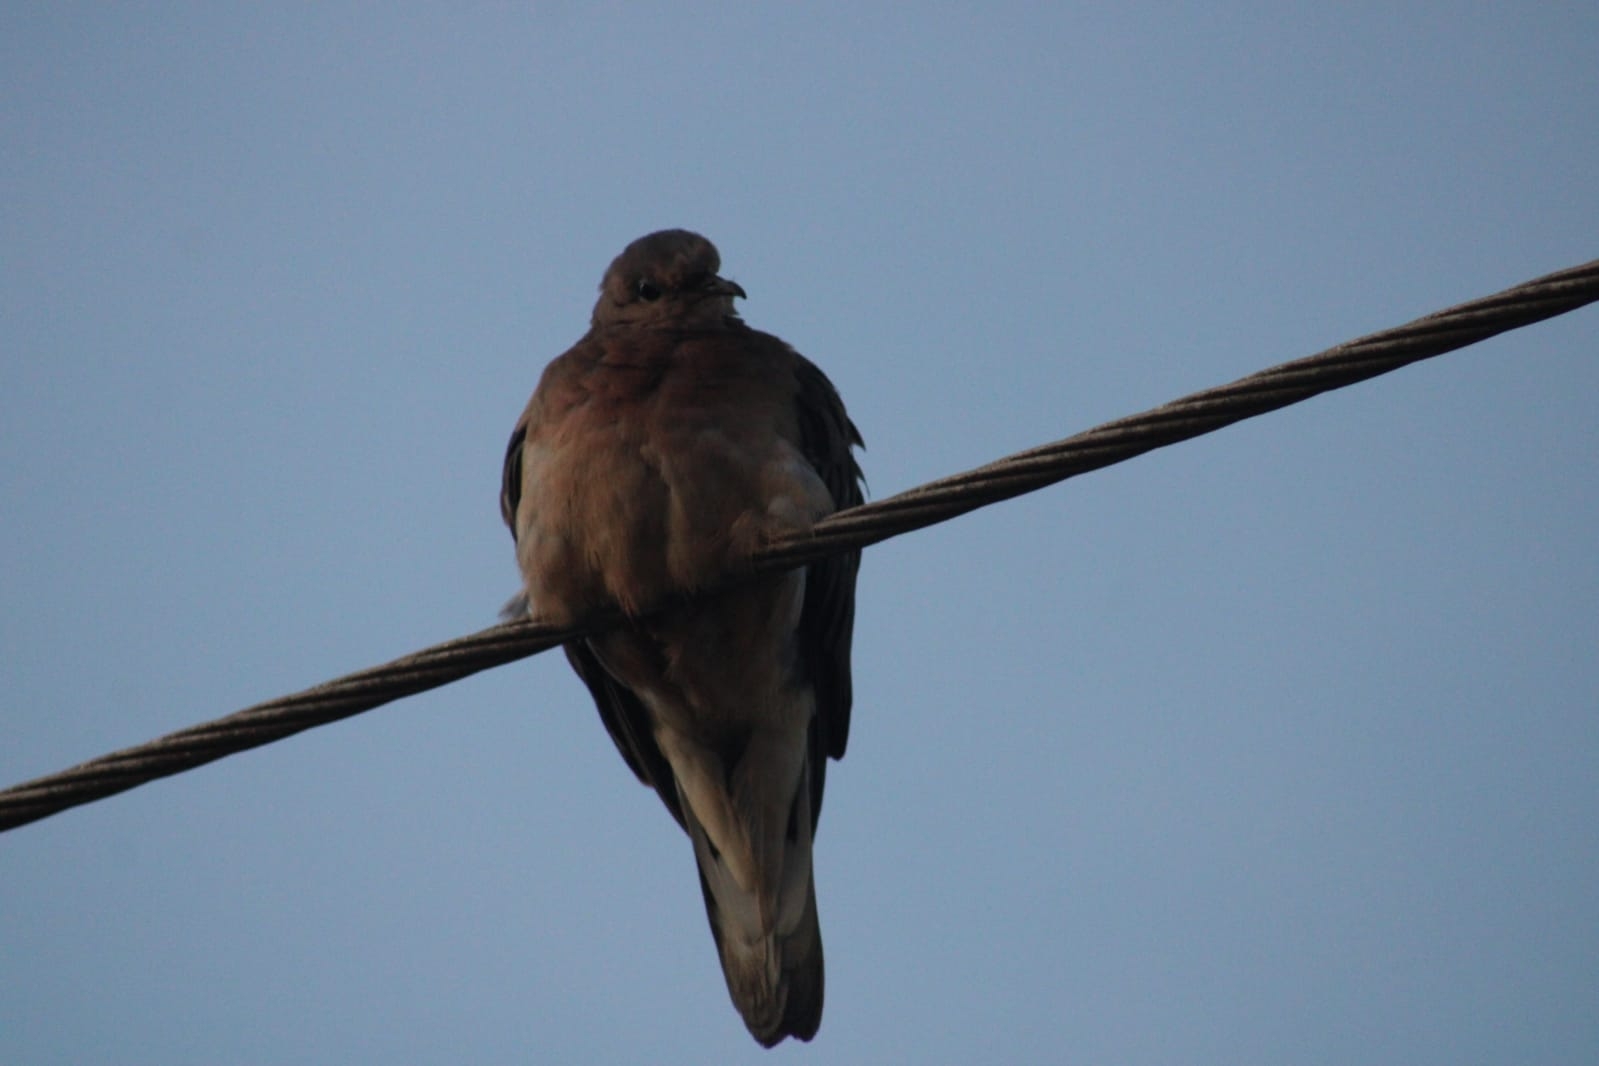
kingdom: Animalia
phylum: Chordata
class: Aves
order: Columbiformes
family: Columbidae
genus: Zenaida
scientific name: Zenaida auriculata
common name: Eared dove
